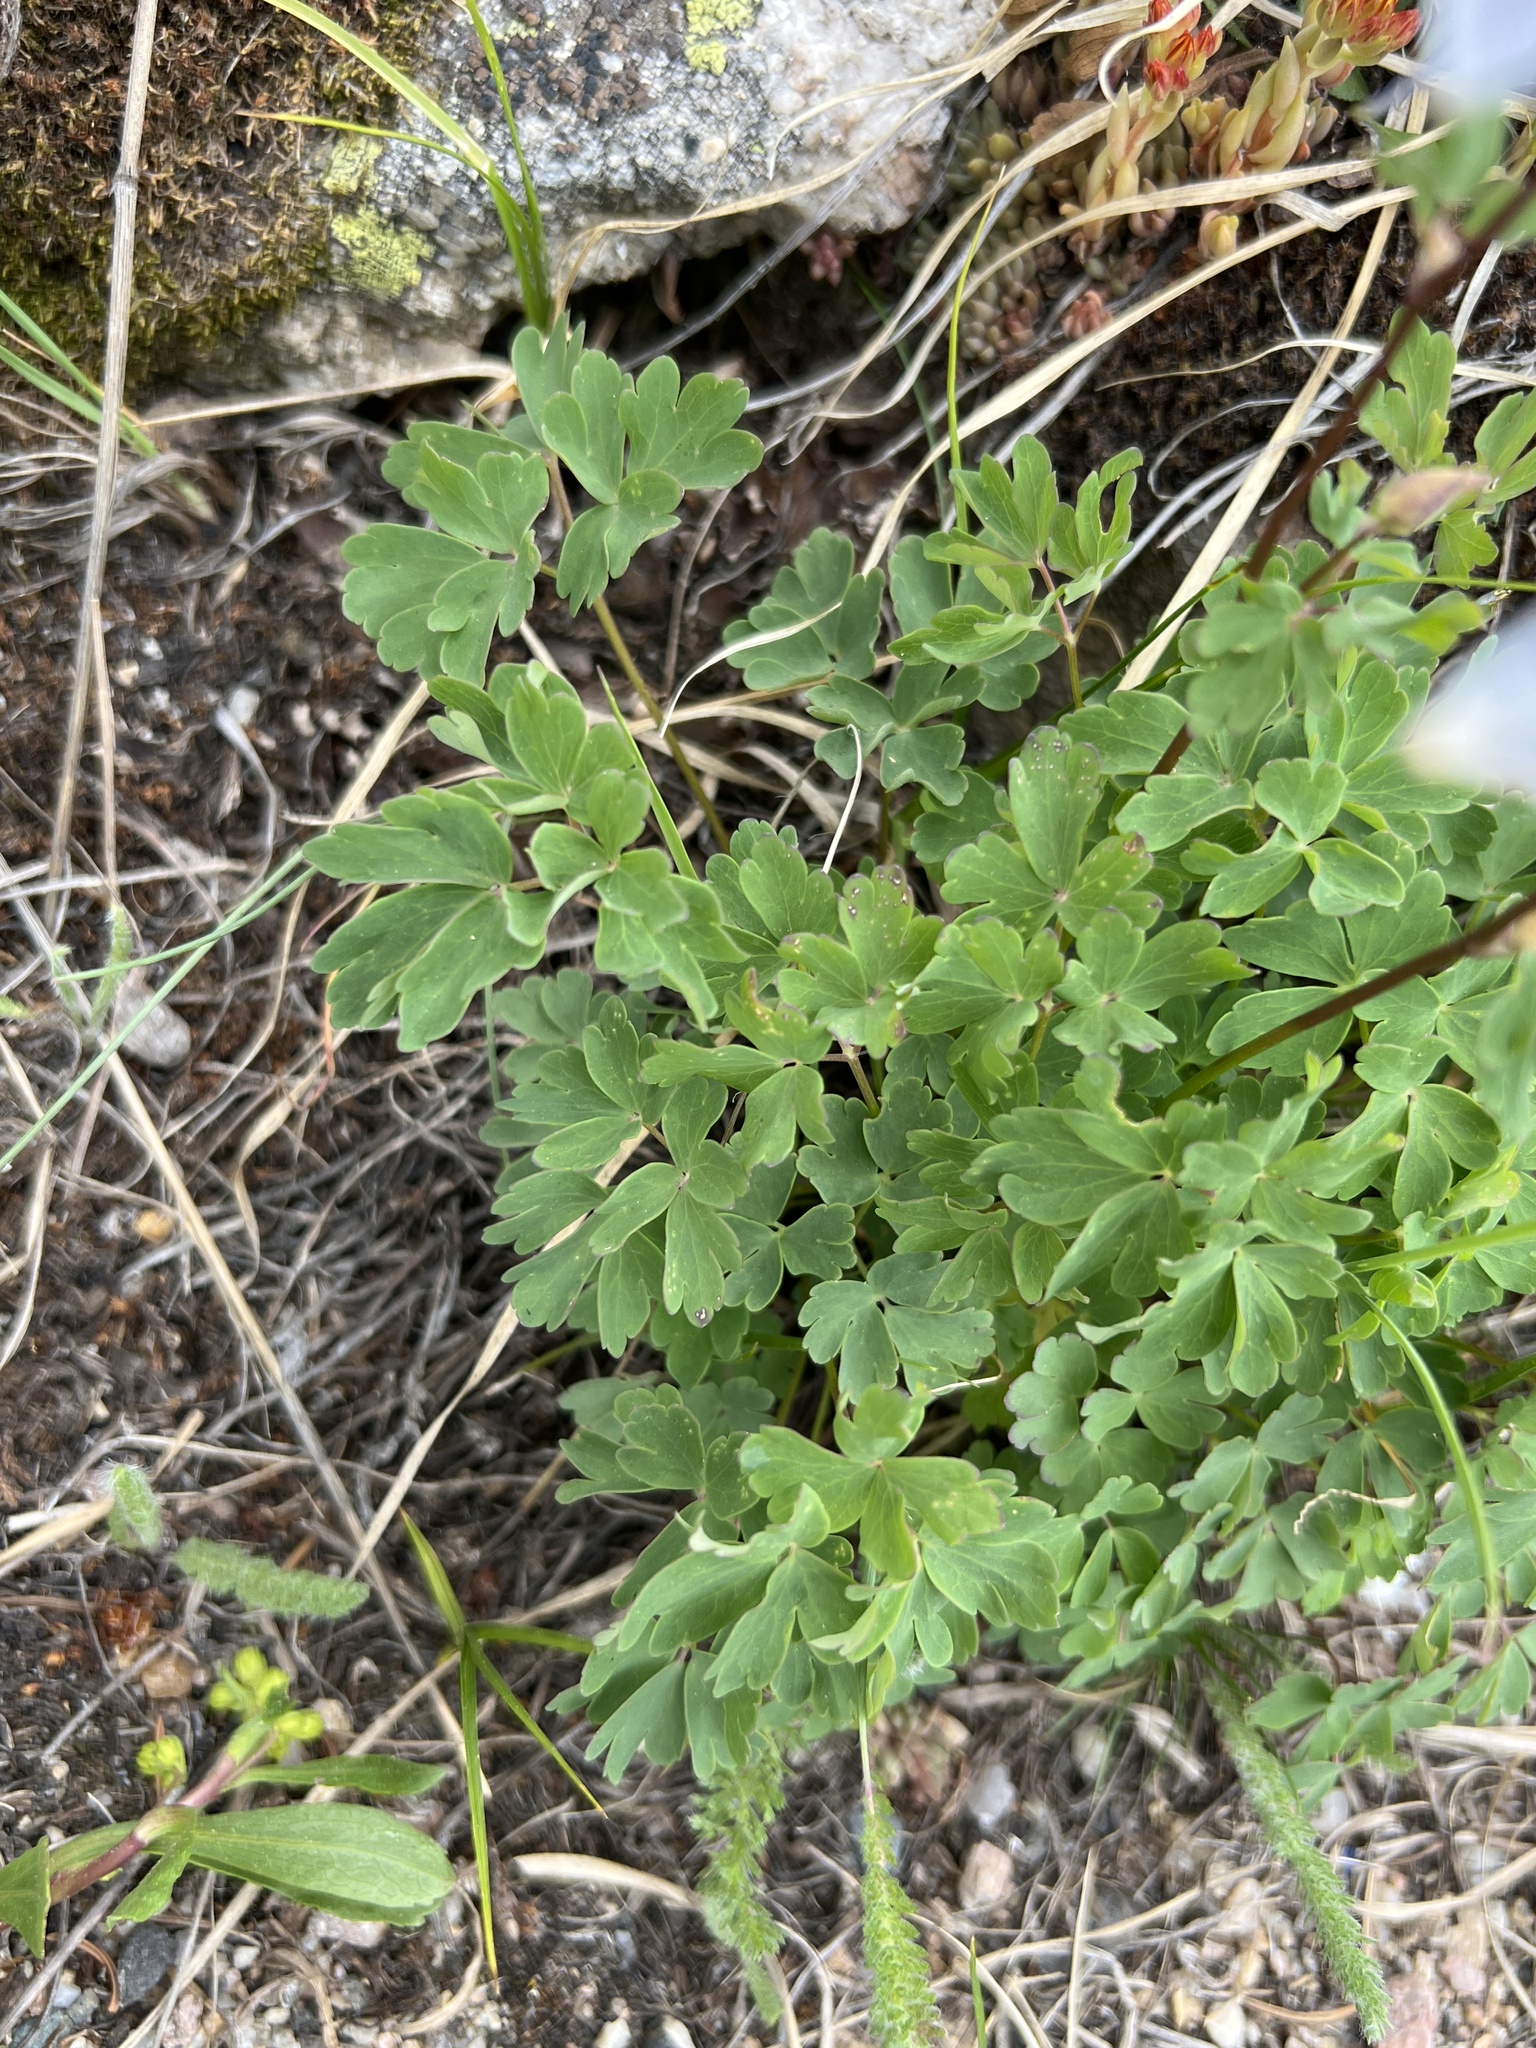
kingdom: Plantae
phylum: Tracheophyta
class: Magnoliopsida
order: Ranunculales
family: Ranunculaceae
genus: Aquilegia
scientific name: Aquilegia coerulea
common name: Rocky mountain columbine
